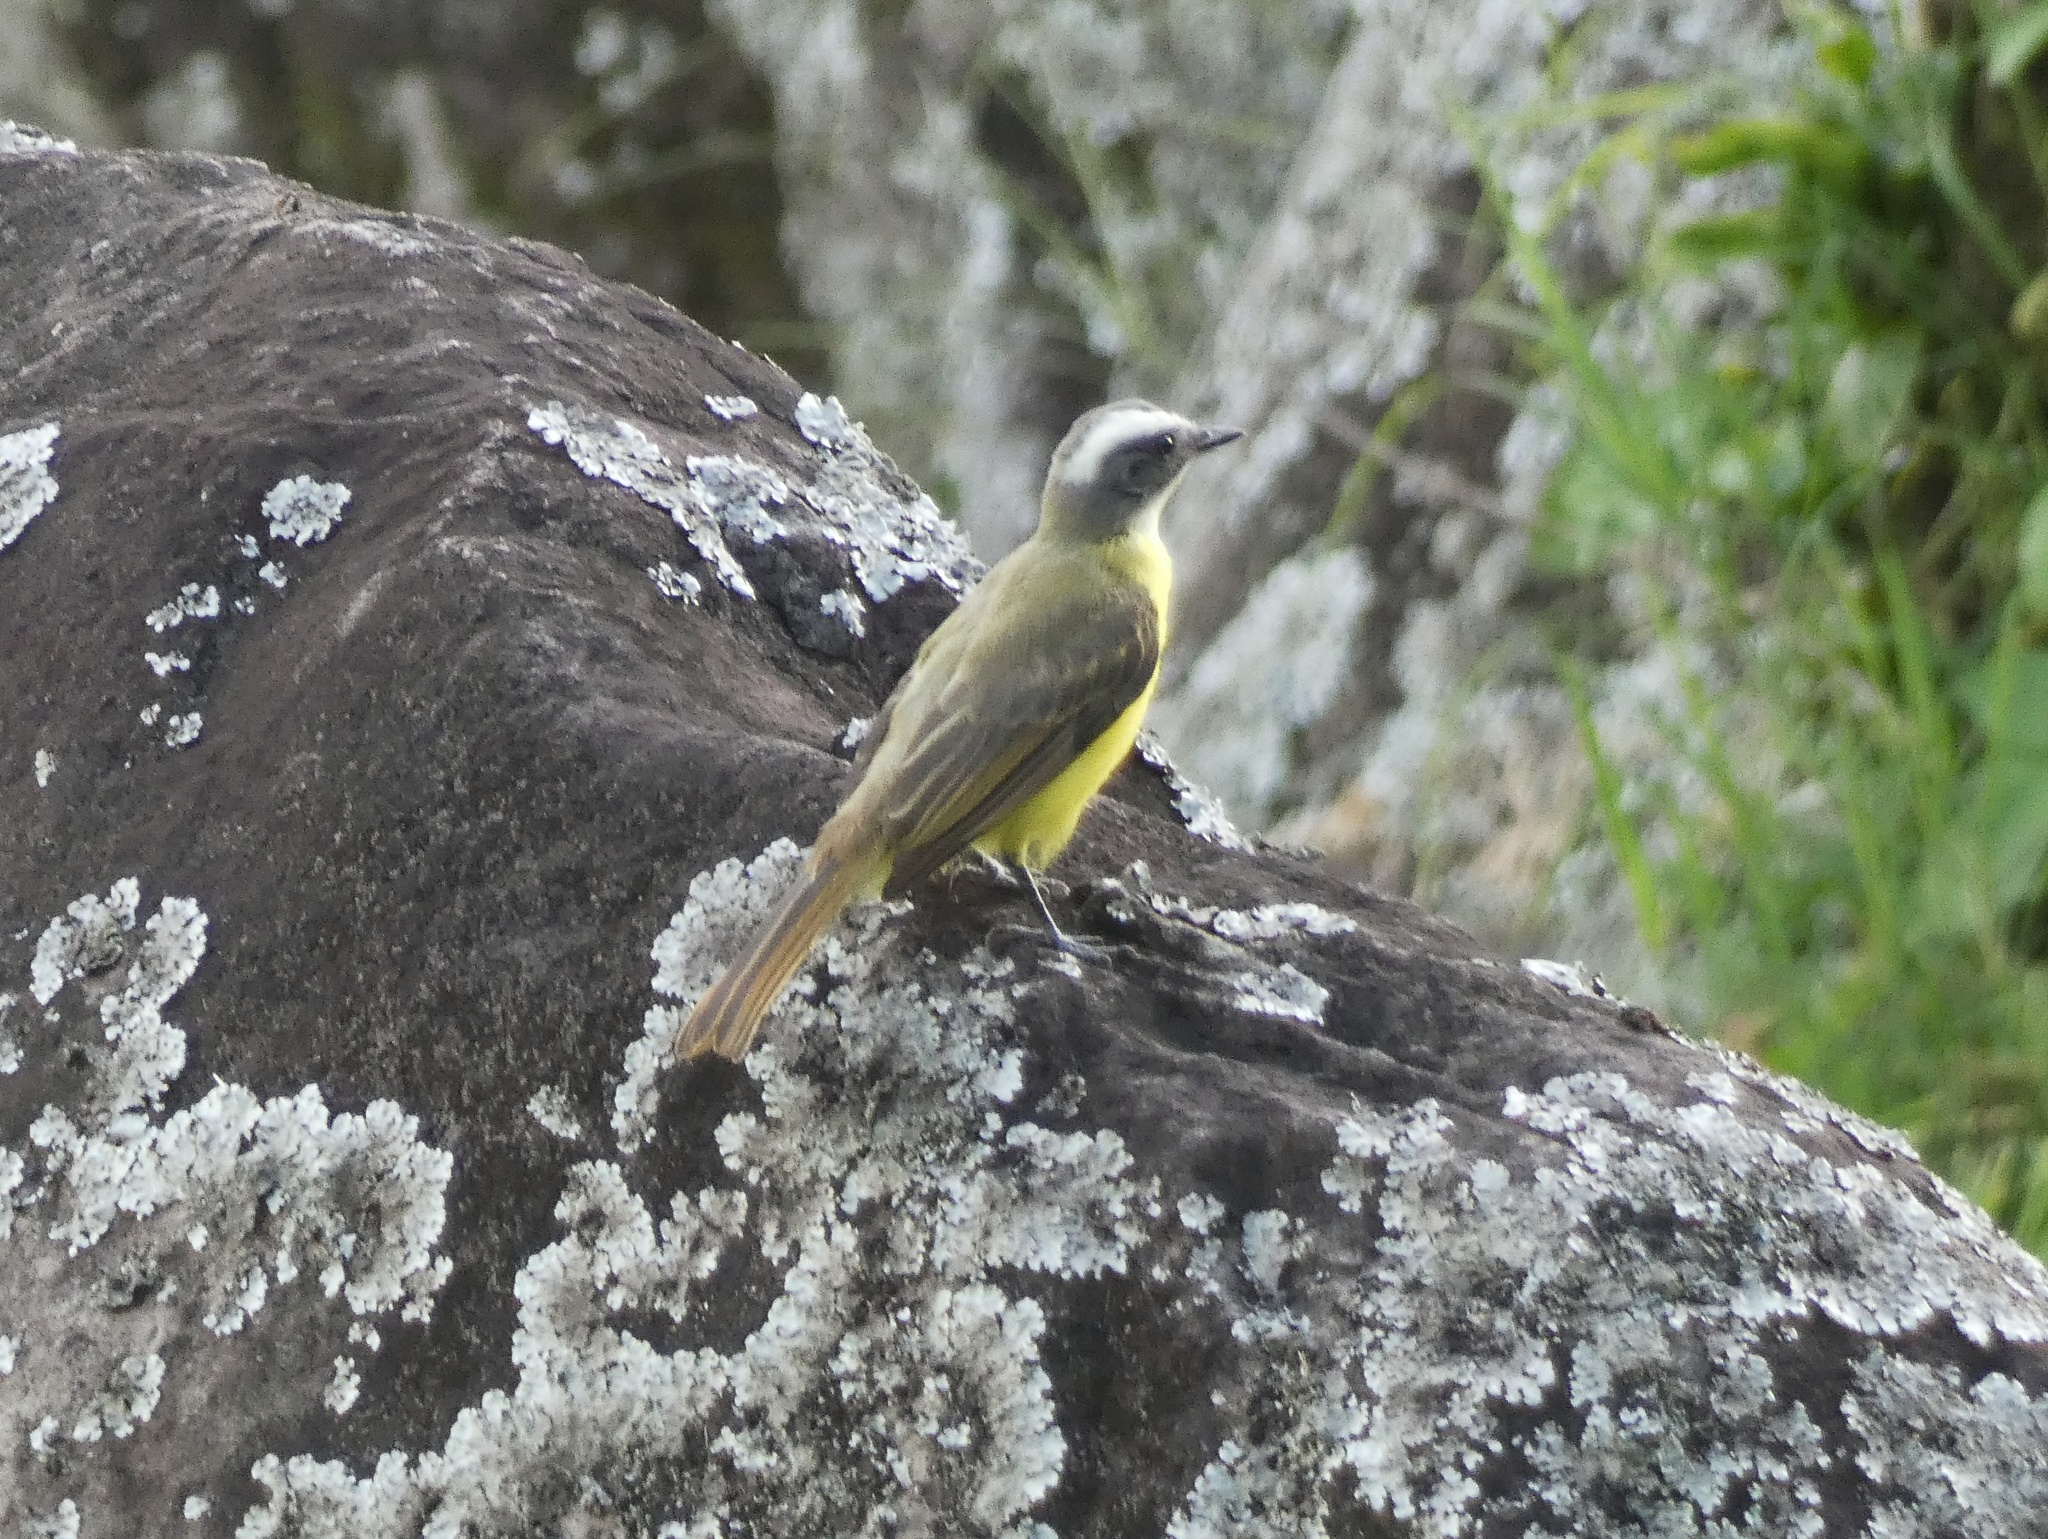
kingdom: Animalia
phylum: Chordata
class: Aves
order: Passeriformes
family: Tyrannidae
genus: Myiozetetes
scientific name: Myiozetetes similis
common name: Social flycatcher
